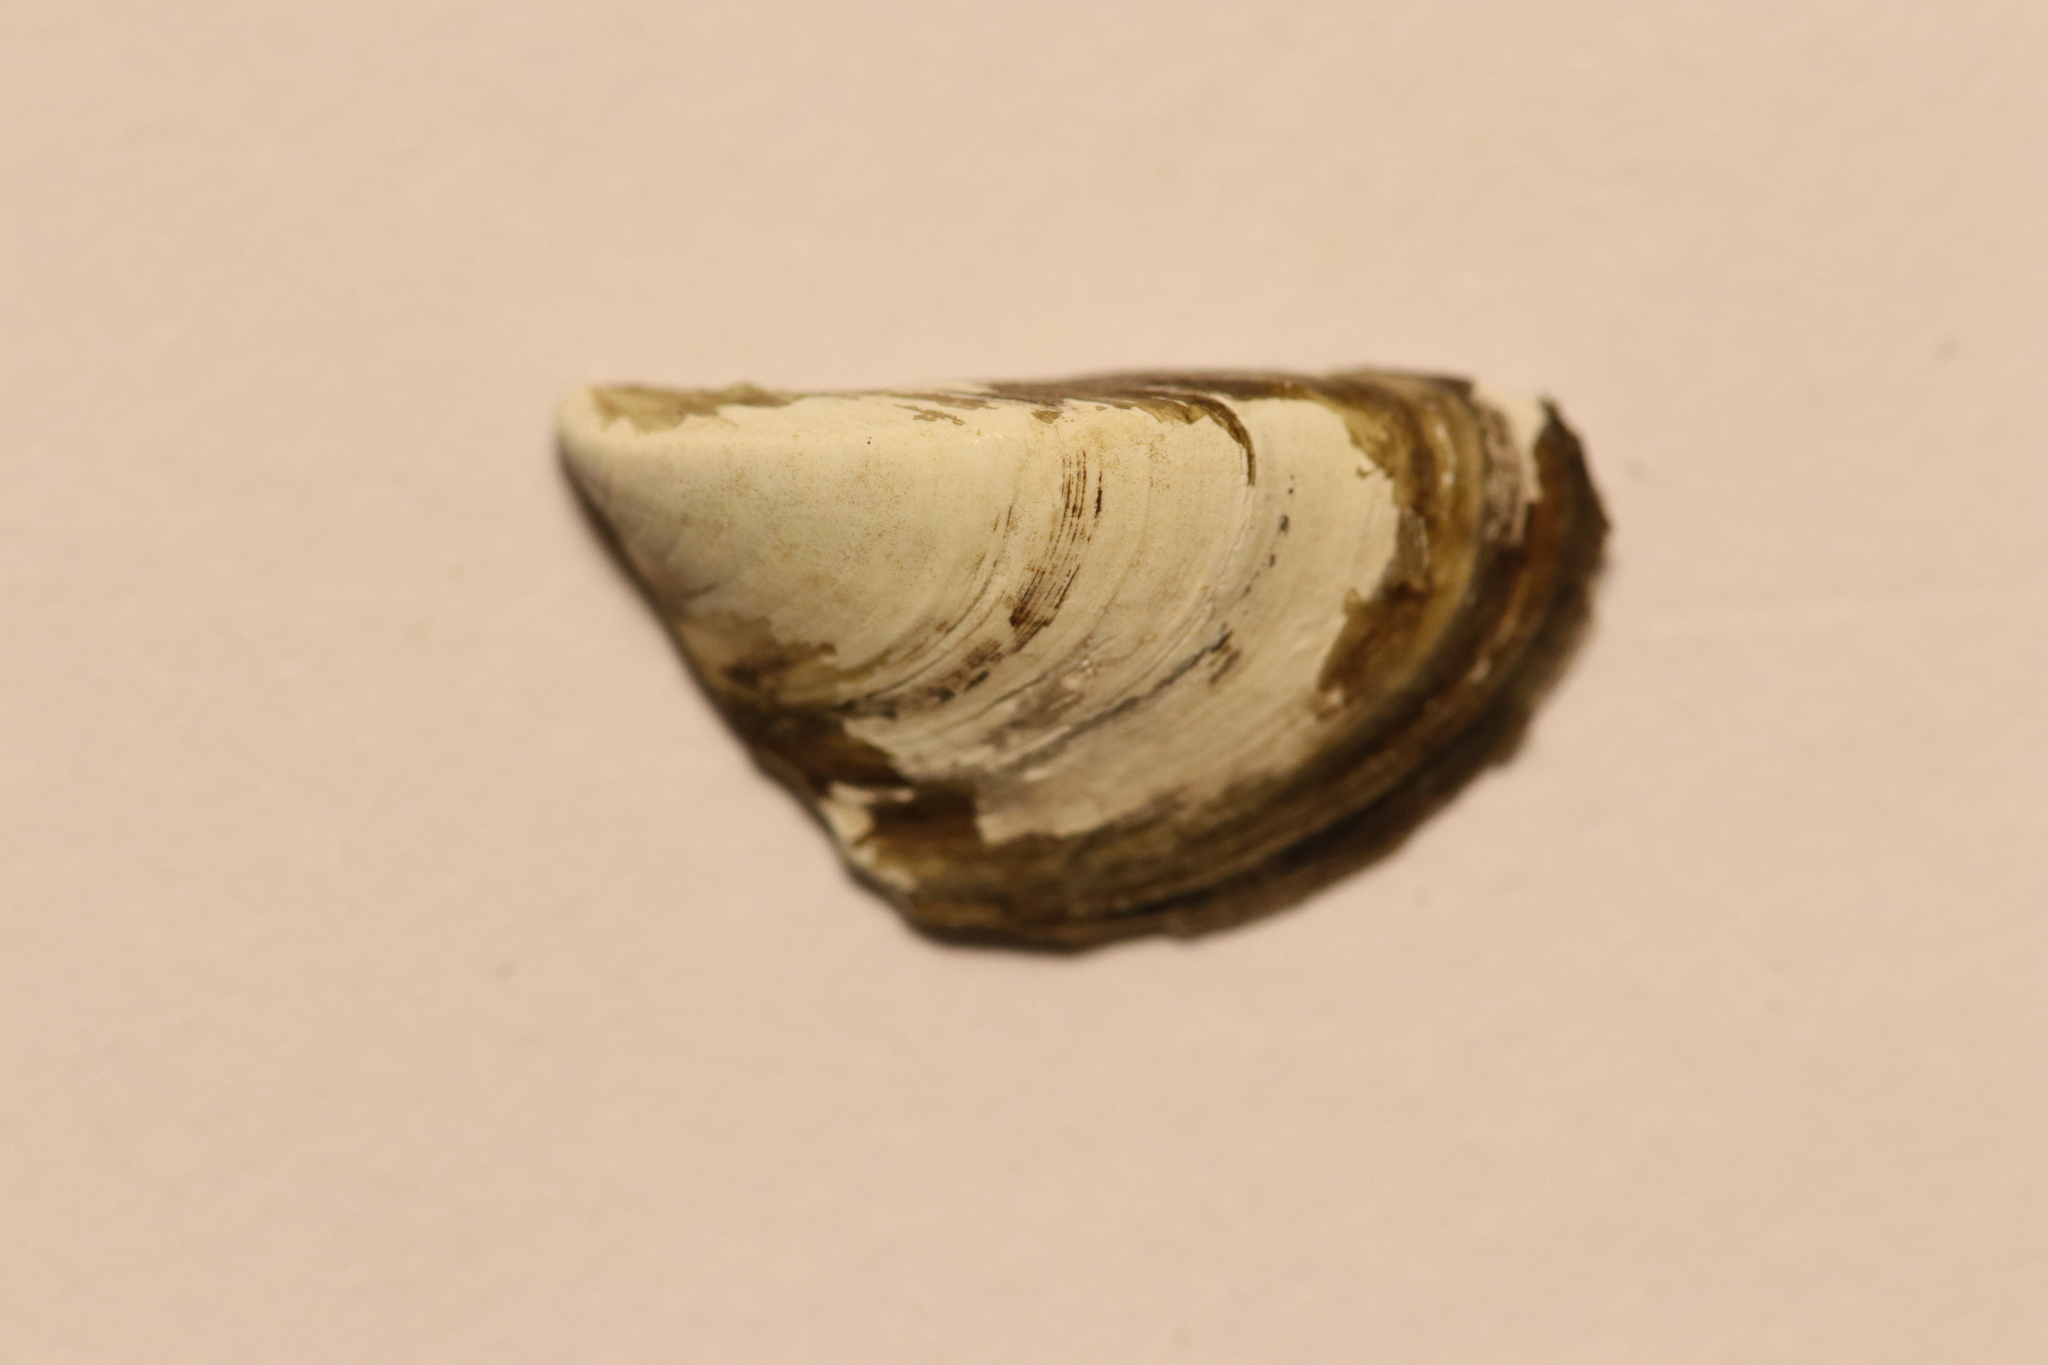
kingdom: Animalia
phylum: Mollusca
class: Bivalvia
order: Myida
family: Dreissenidae
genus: Dreissena
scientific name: Dreissena polymorpha
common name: Zebra mussel
